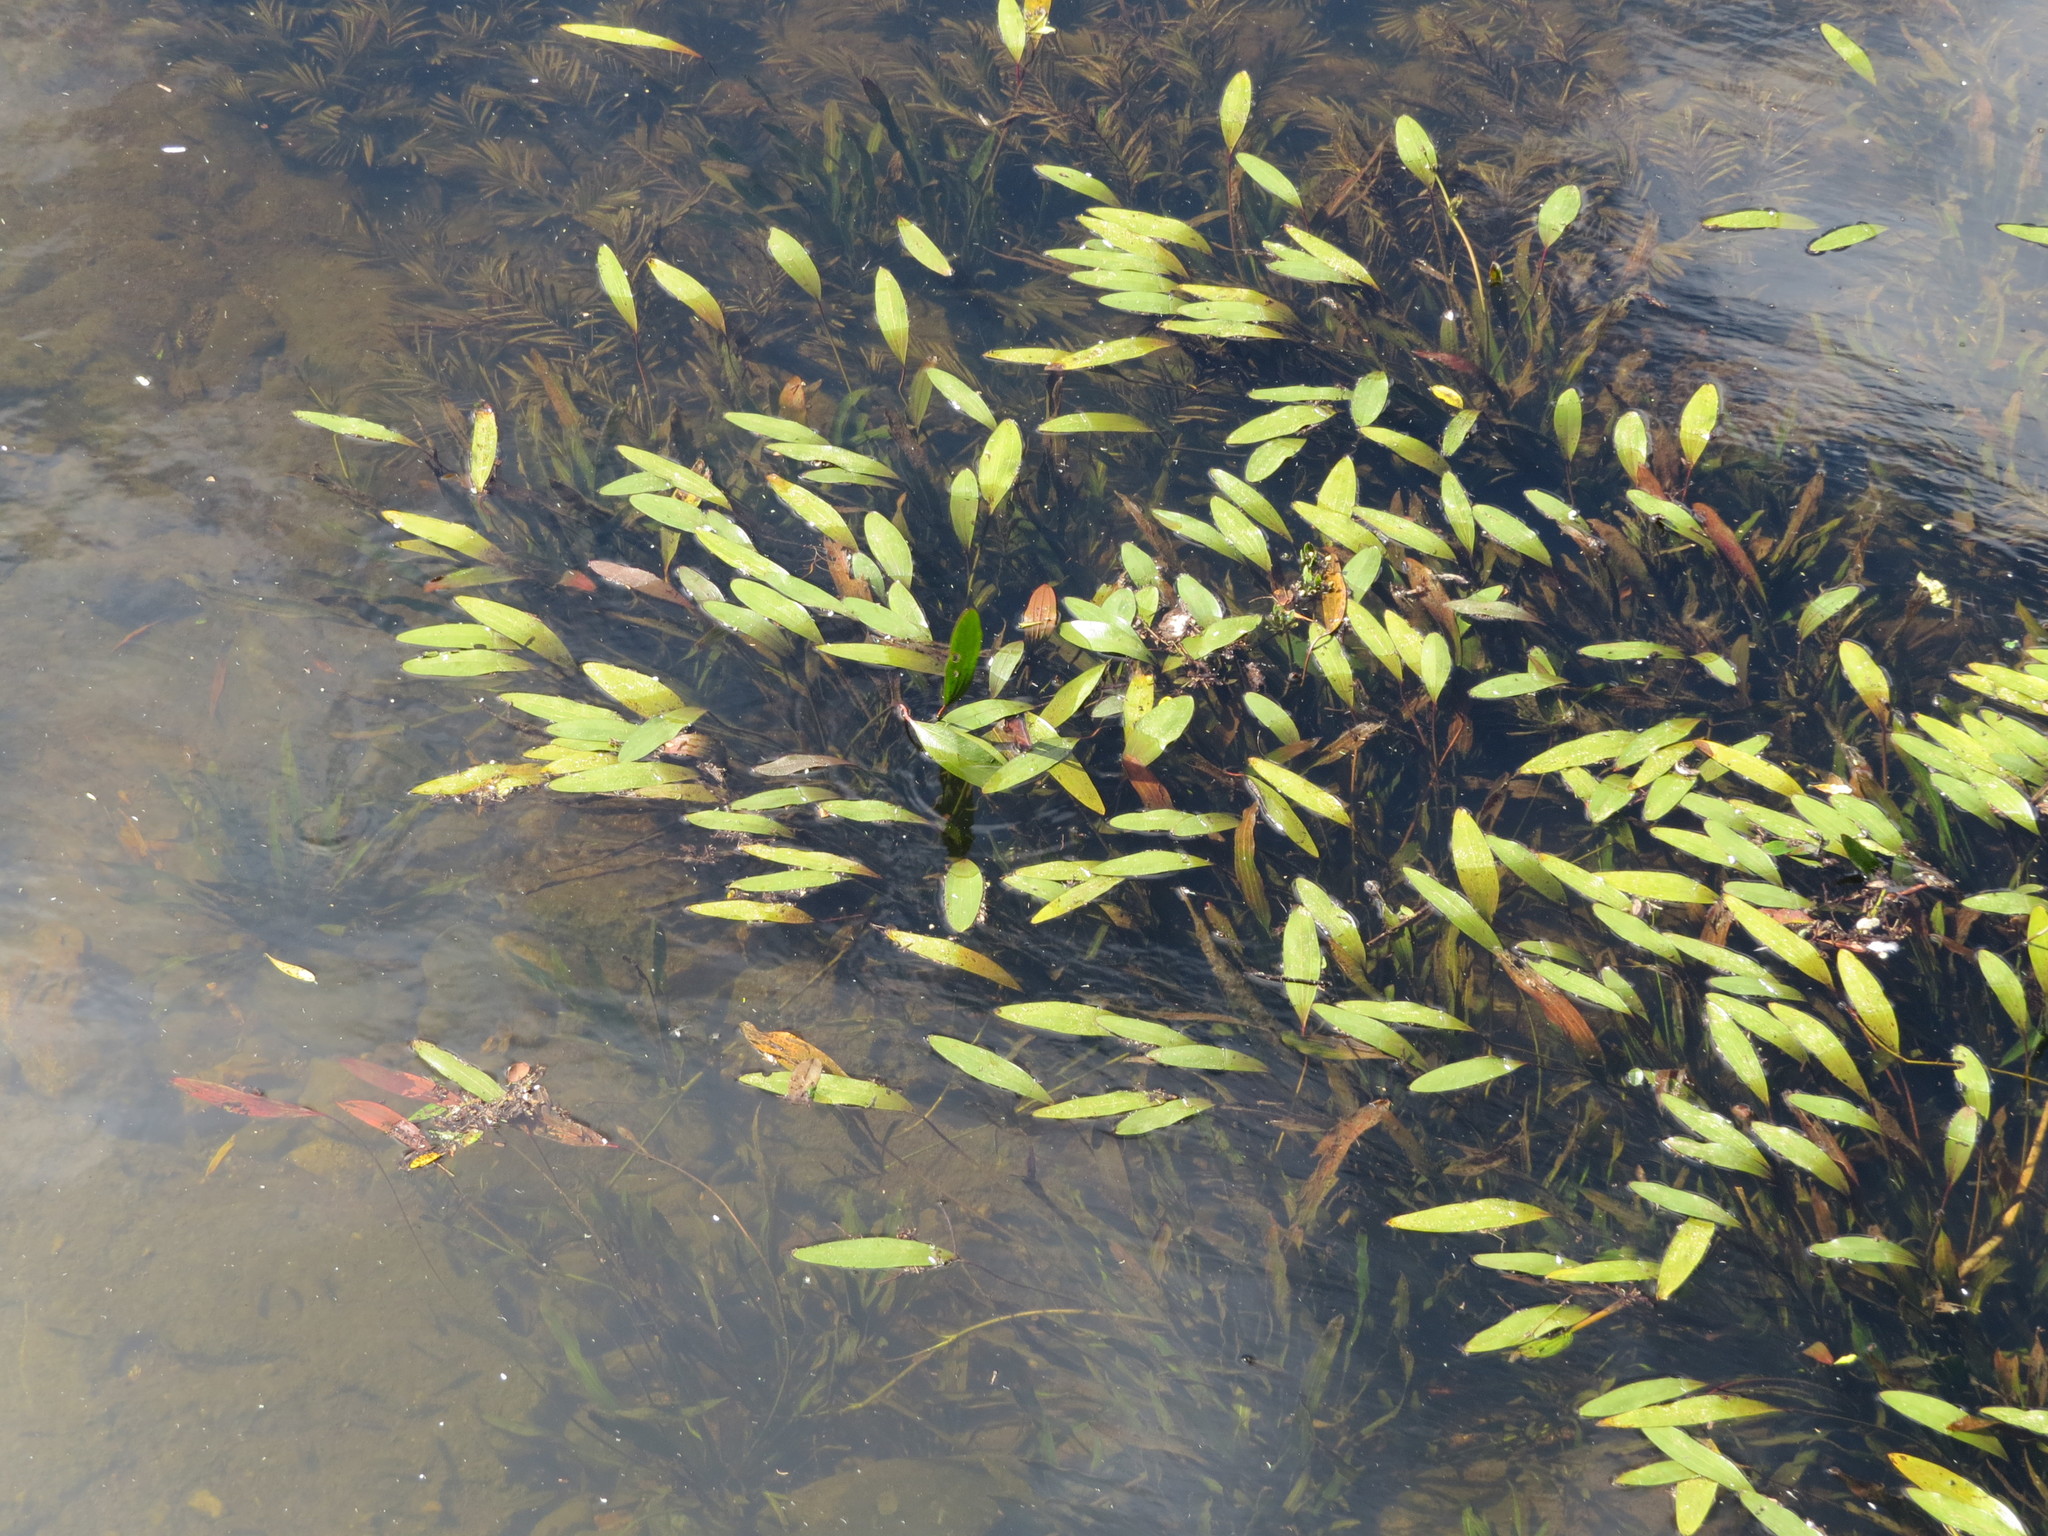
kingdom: Plantae
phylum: Tracheophyta
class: Liliopsida
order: Alismatales
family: Alismataceae
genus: Aquarius
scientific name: Aquarius uruguayensis
